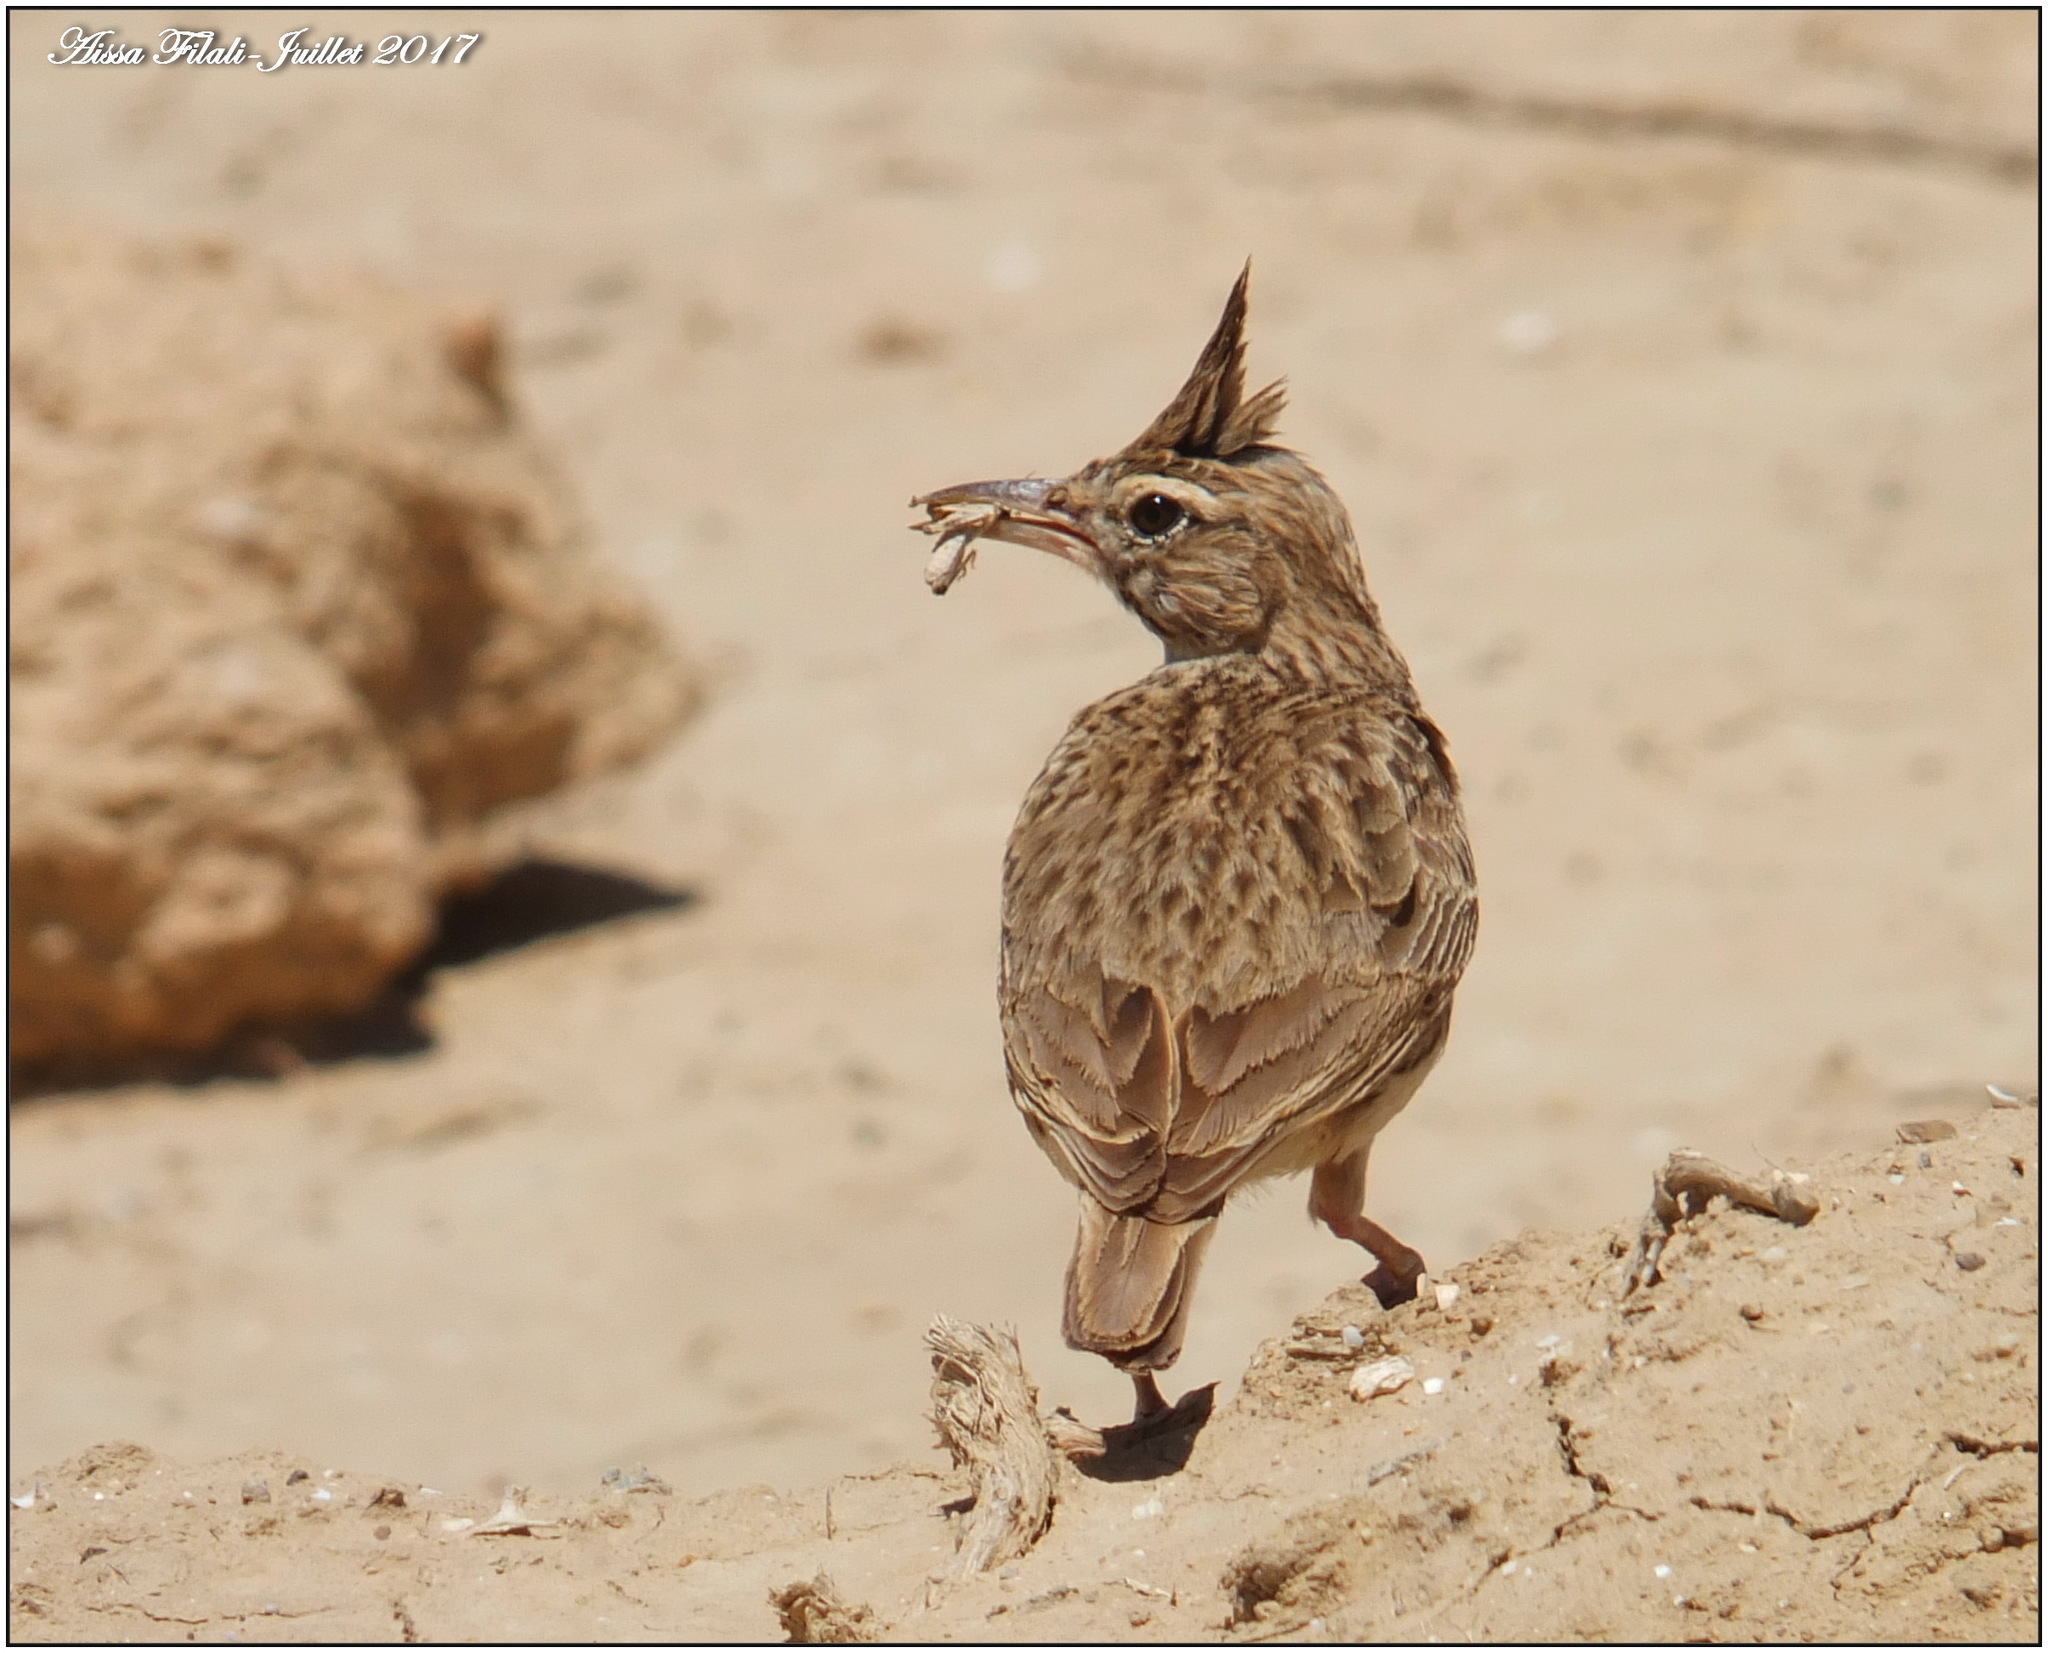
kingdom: Animalia
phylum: Chordata
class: Aves
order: Passeriformes
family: Alaudidae
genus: Galerida
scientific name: Galerida cristata
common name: Crested lark
